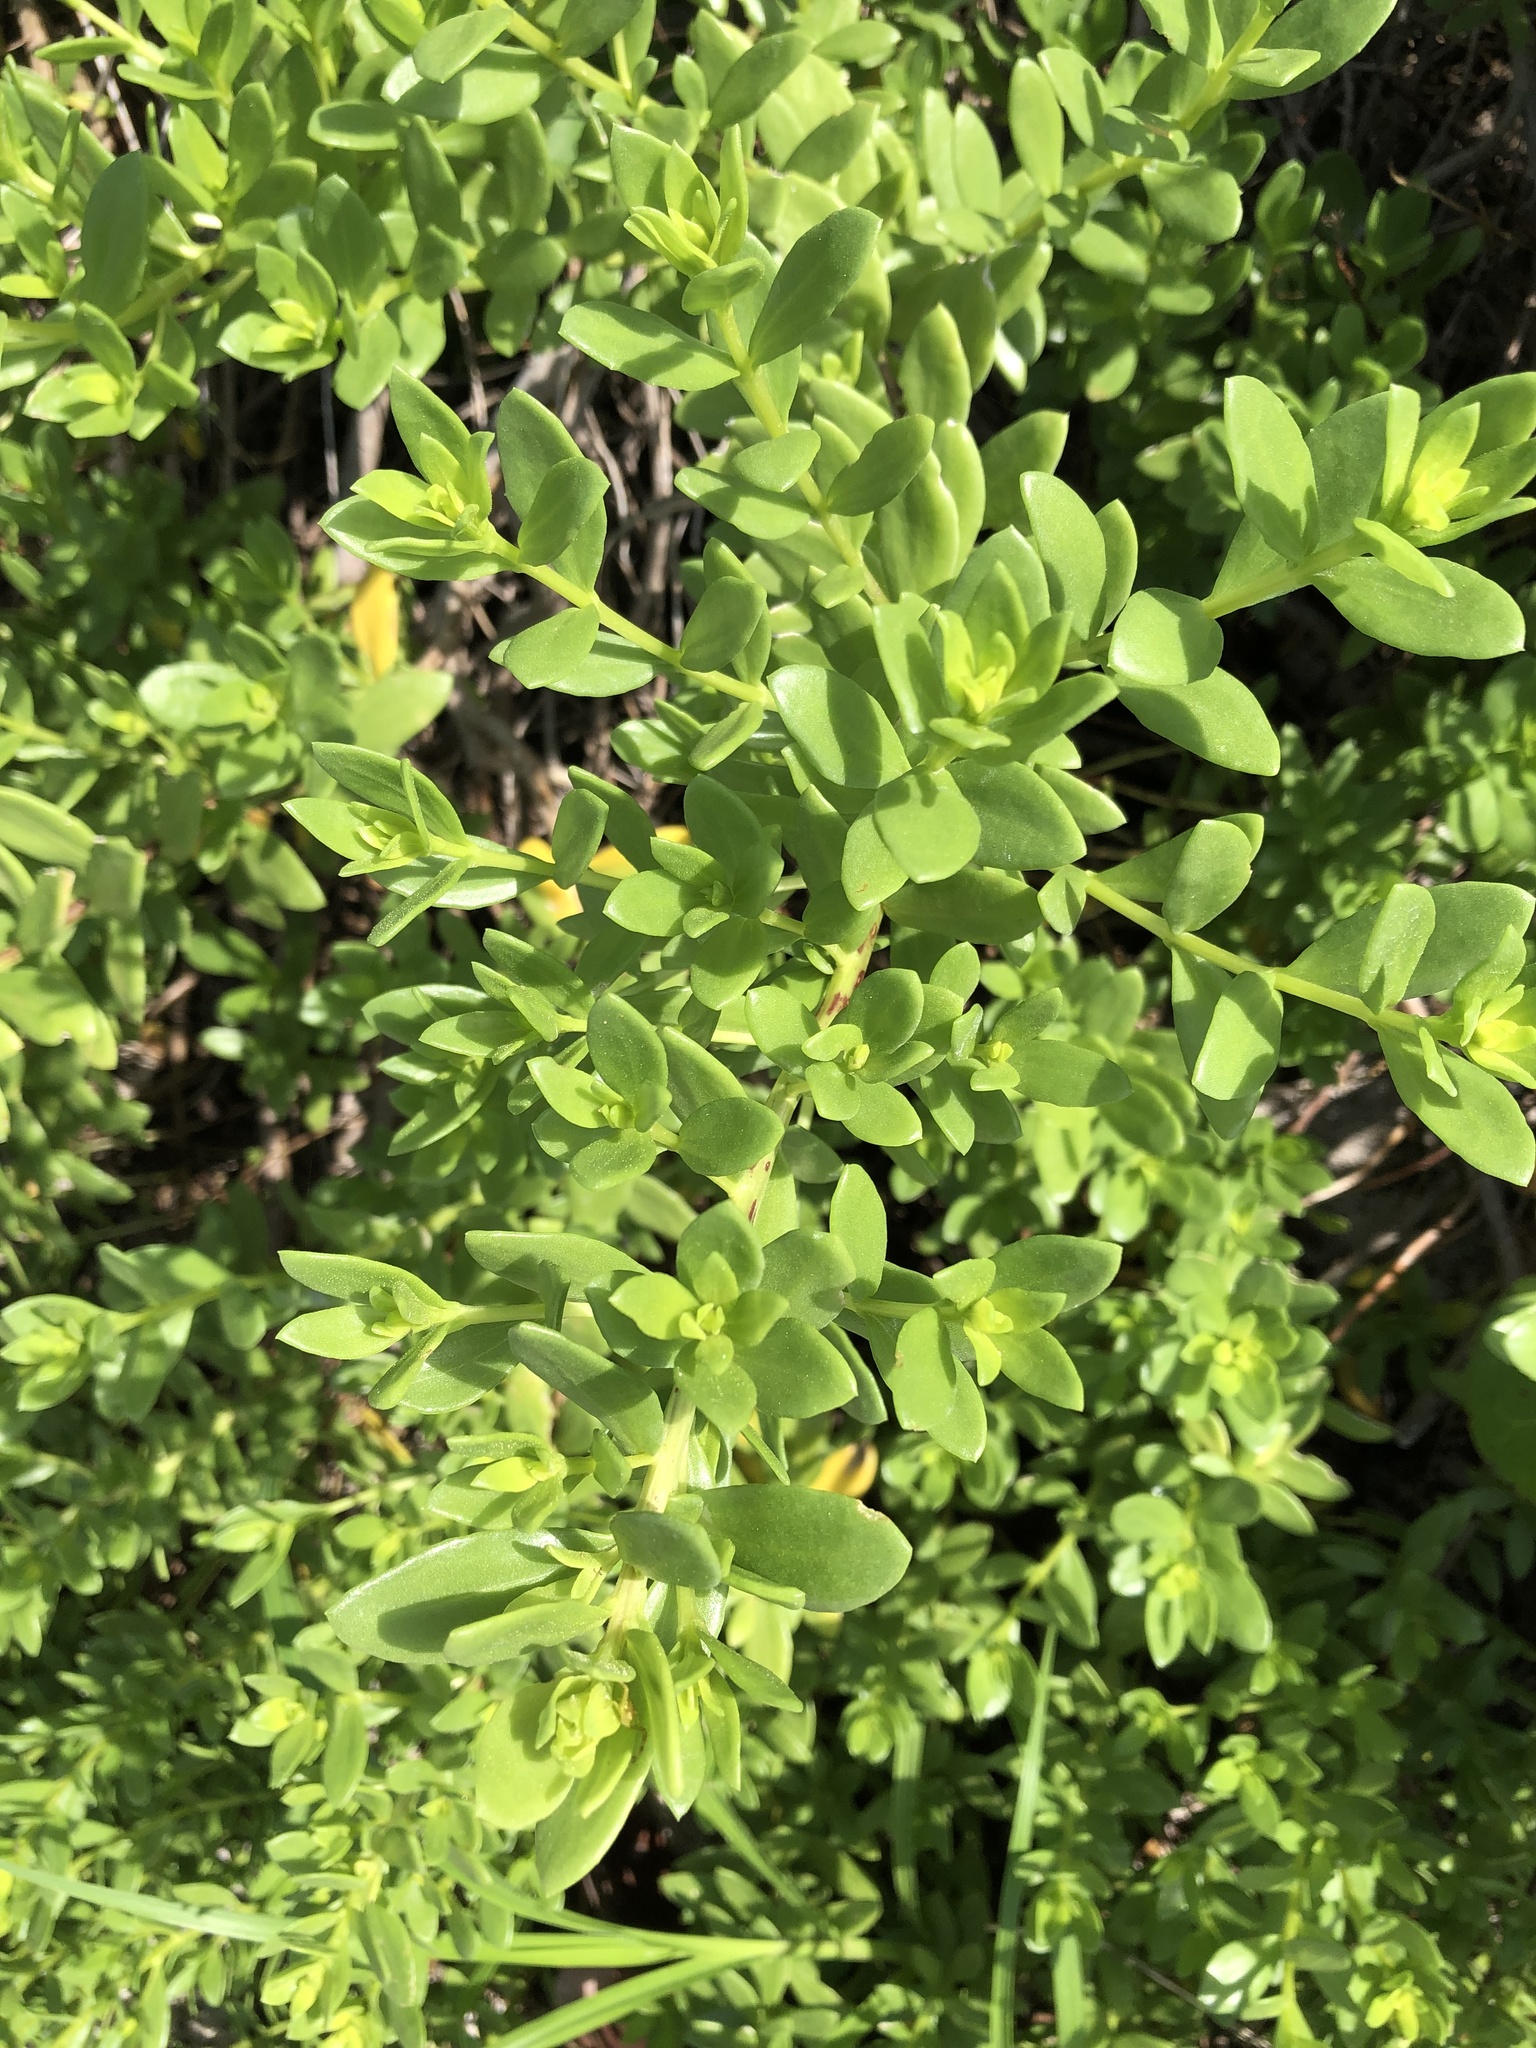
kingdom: Plantae
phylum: Tracheophyta
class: Magnoliopsida
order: Asterales
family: Asteraceae
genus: Iva
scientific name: Iva imbricata
